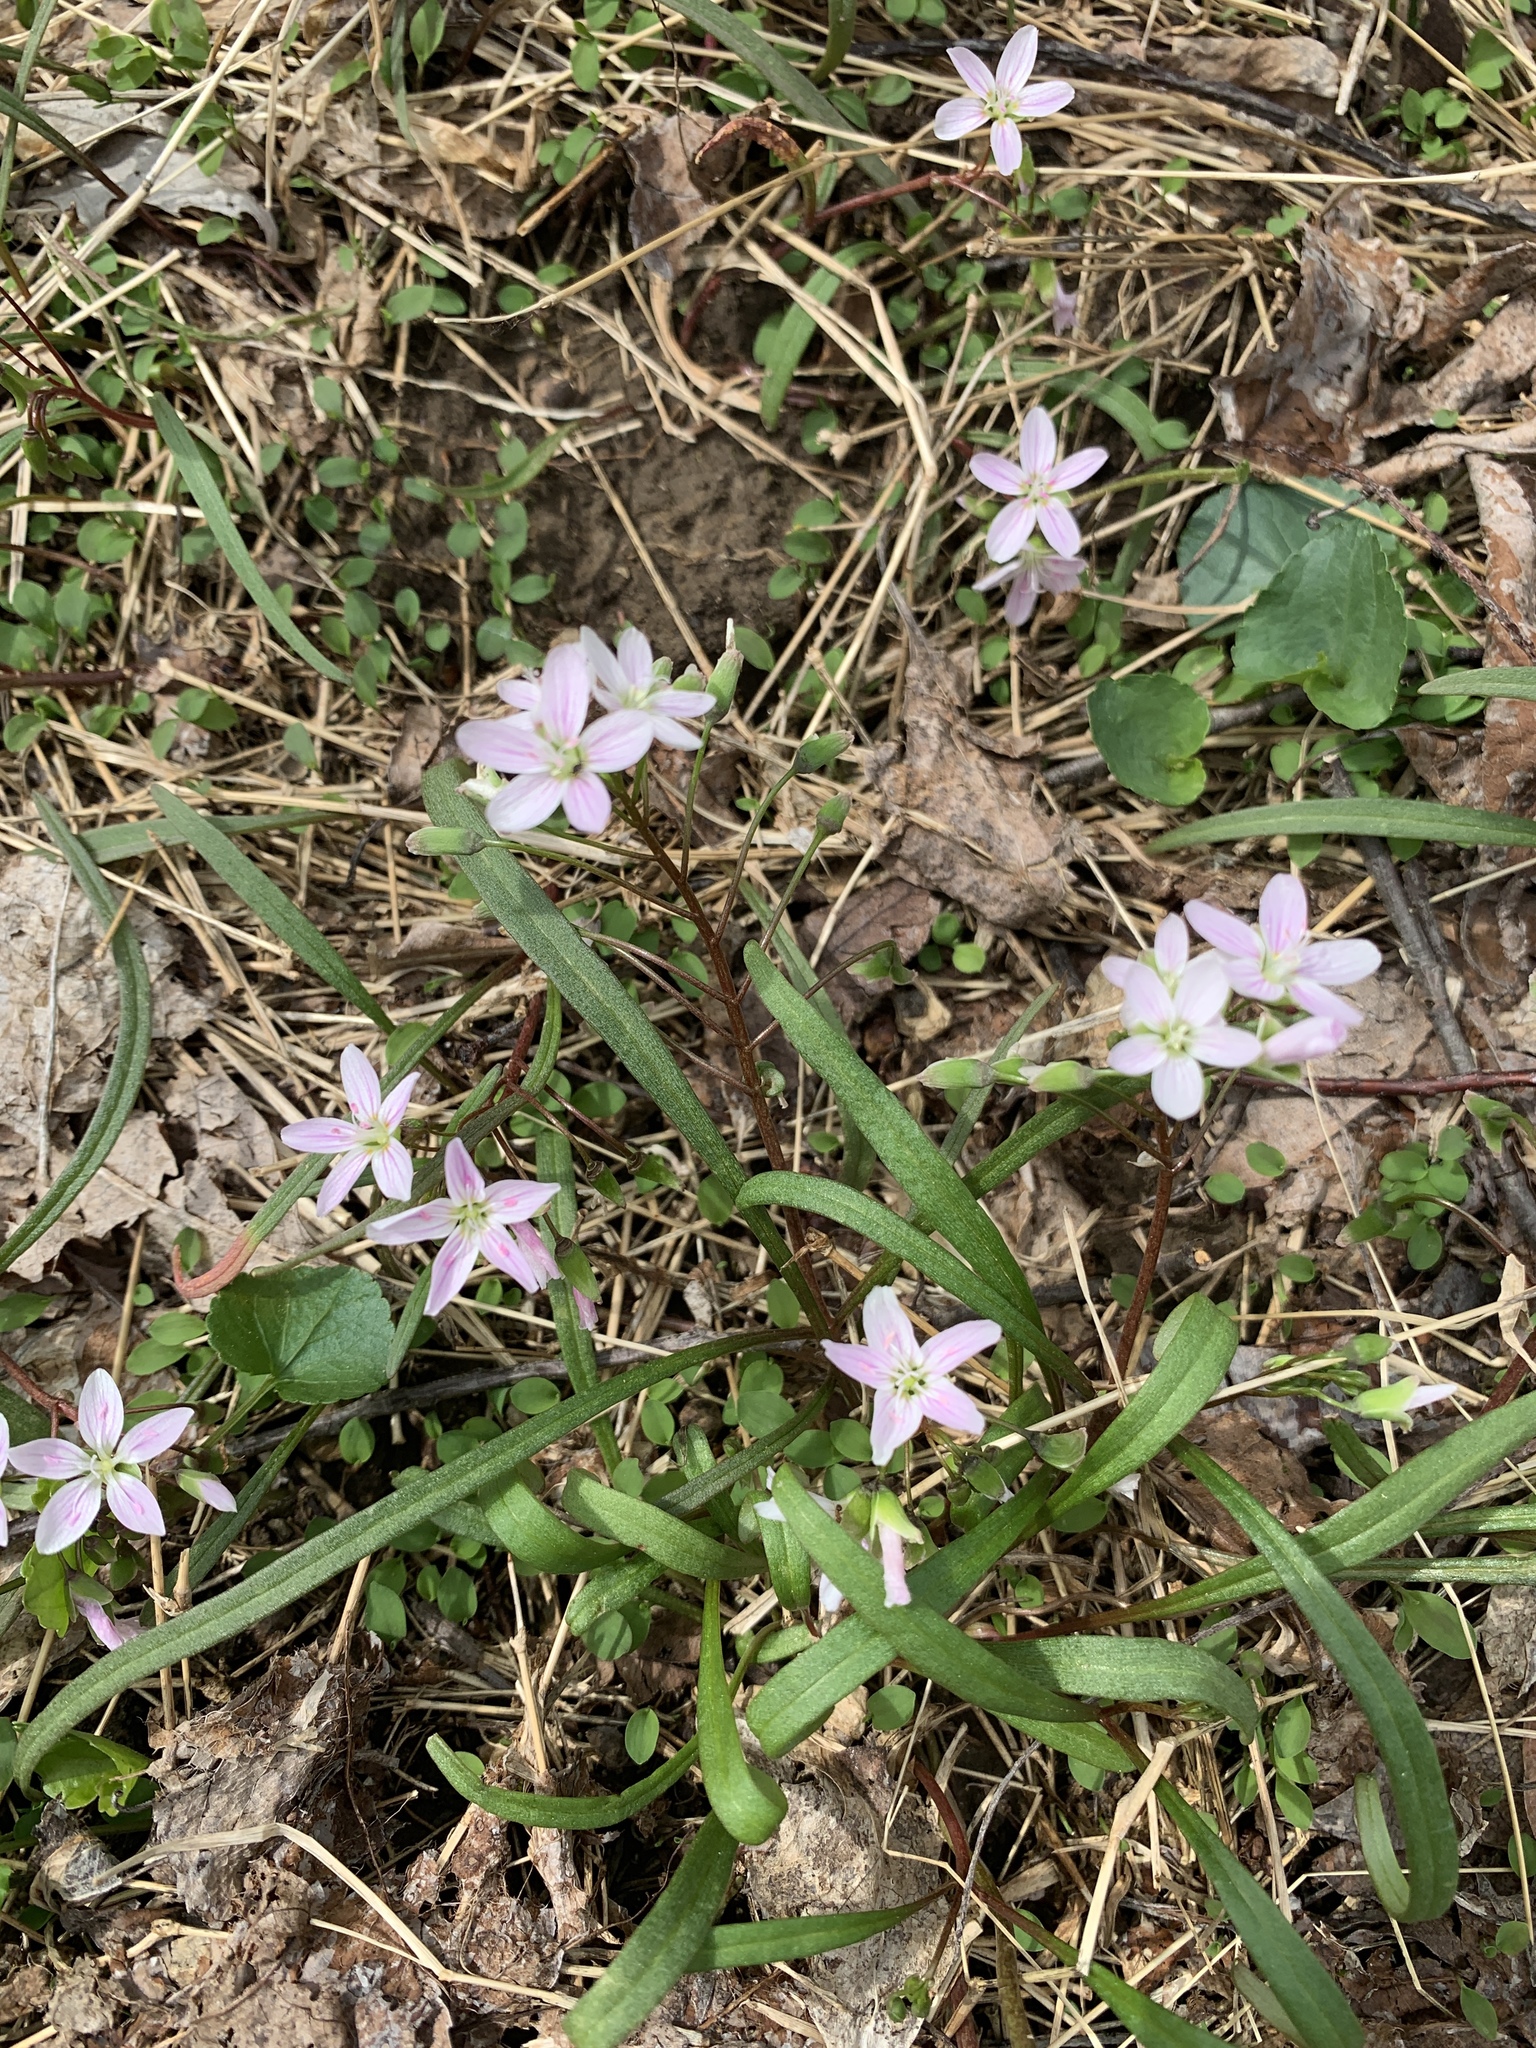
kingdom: Plantae
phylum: Tracheophyta
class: Magnoliopsida
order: Caryophyllales
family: Montiaceae
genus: Claytonia
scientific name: Claytonia virginica
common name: Virginia springbeauty
